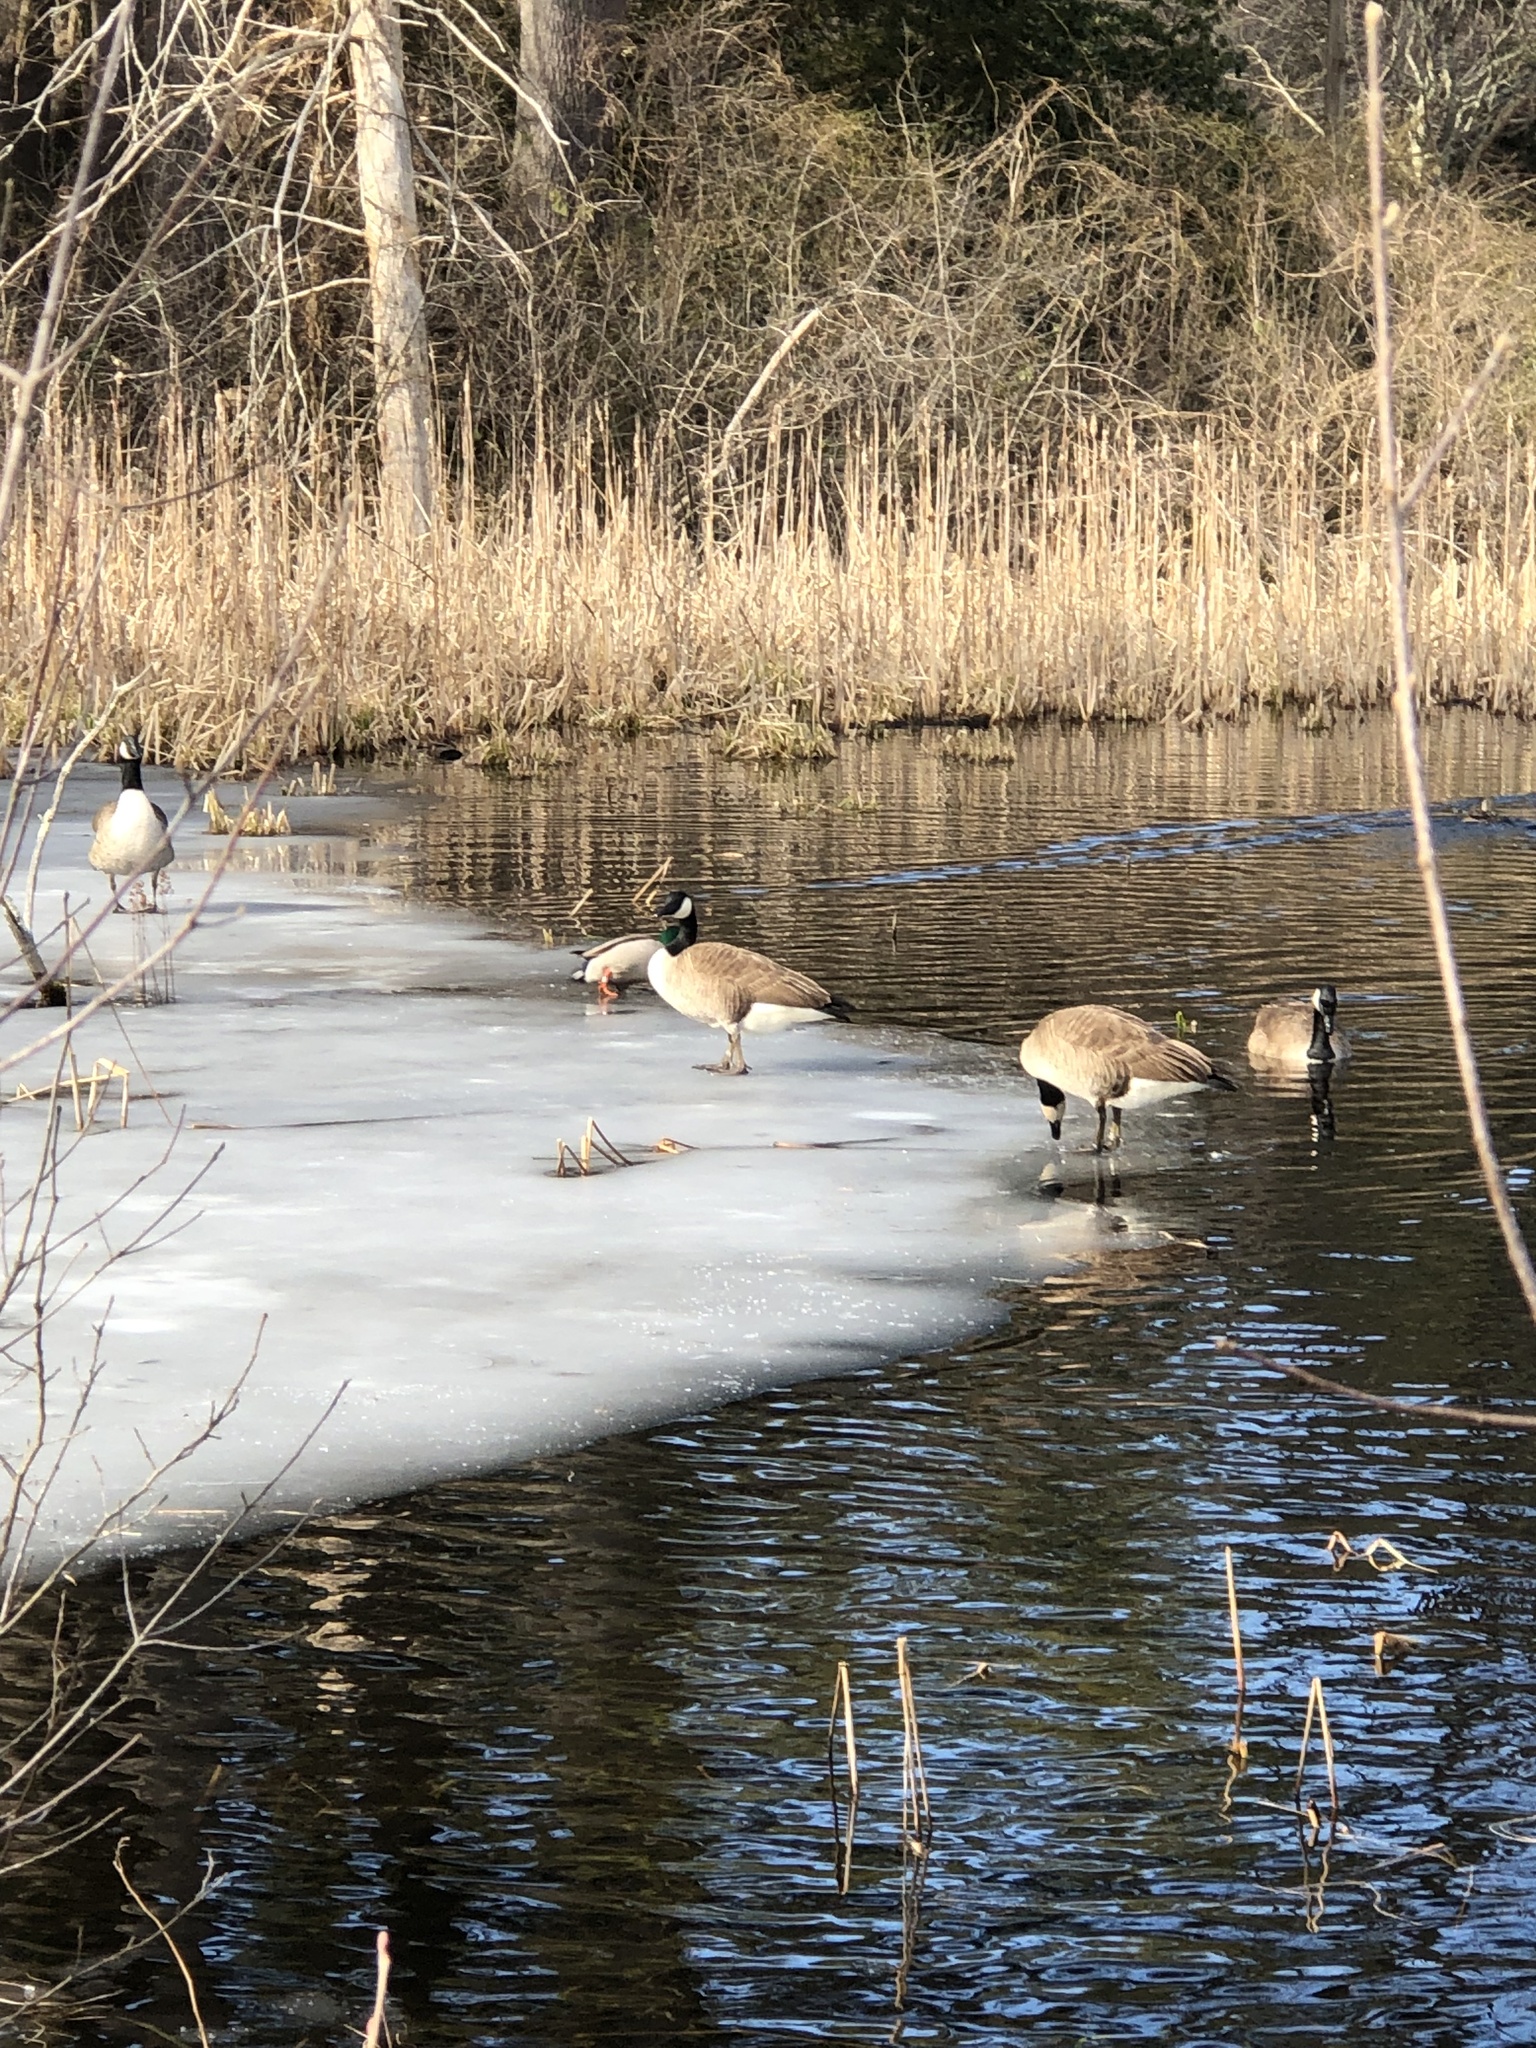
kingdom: Animalia
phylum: Chordata
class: Aves
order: Anseriformes
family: Anatidae
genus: Branta
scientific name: Branta canadensis
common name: Canada goose
